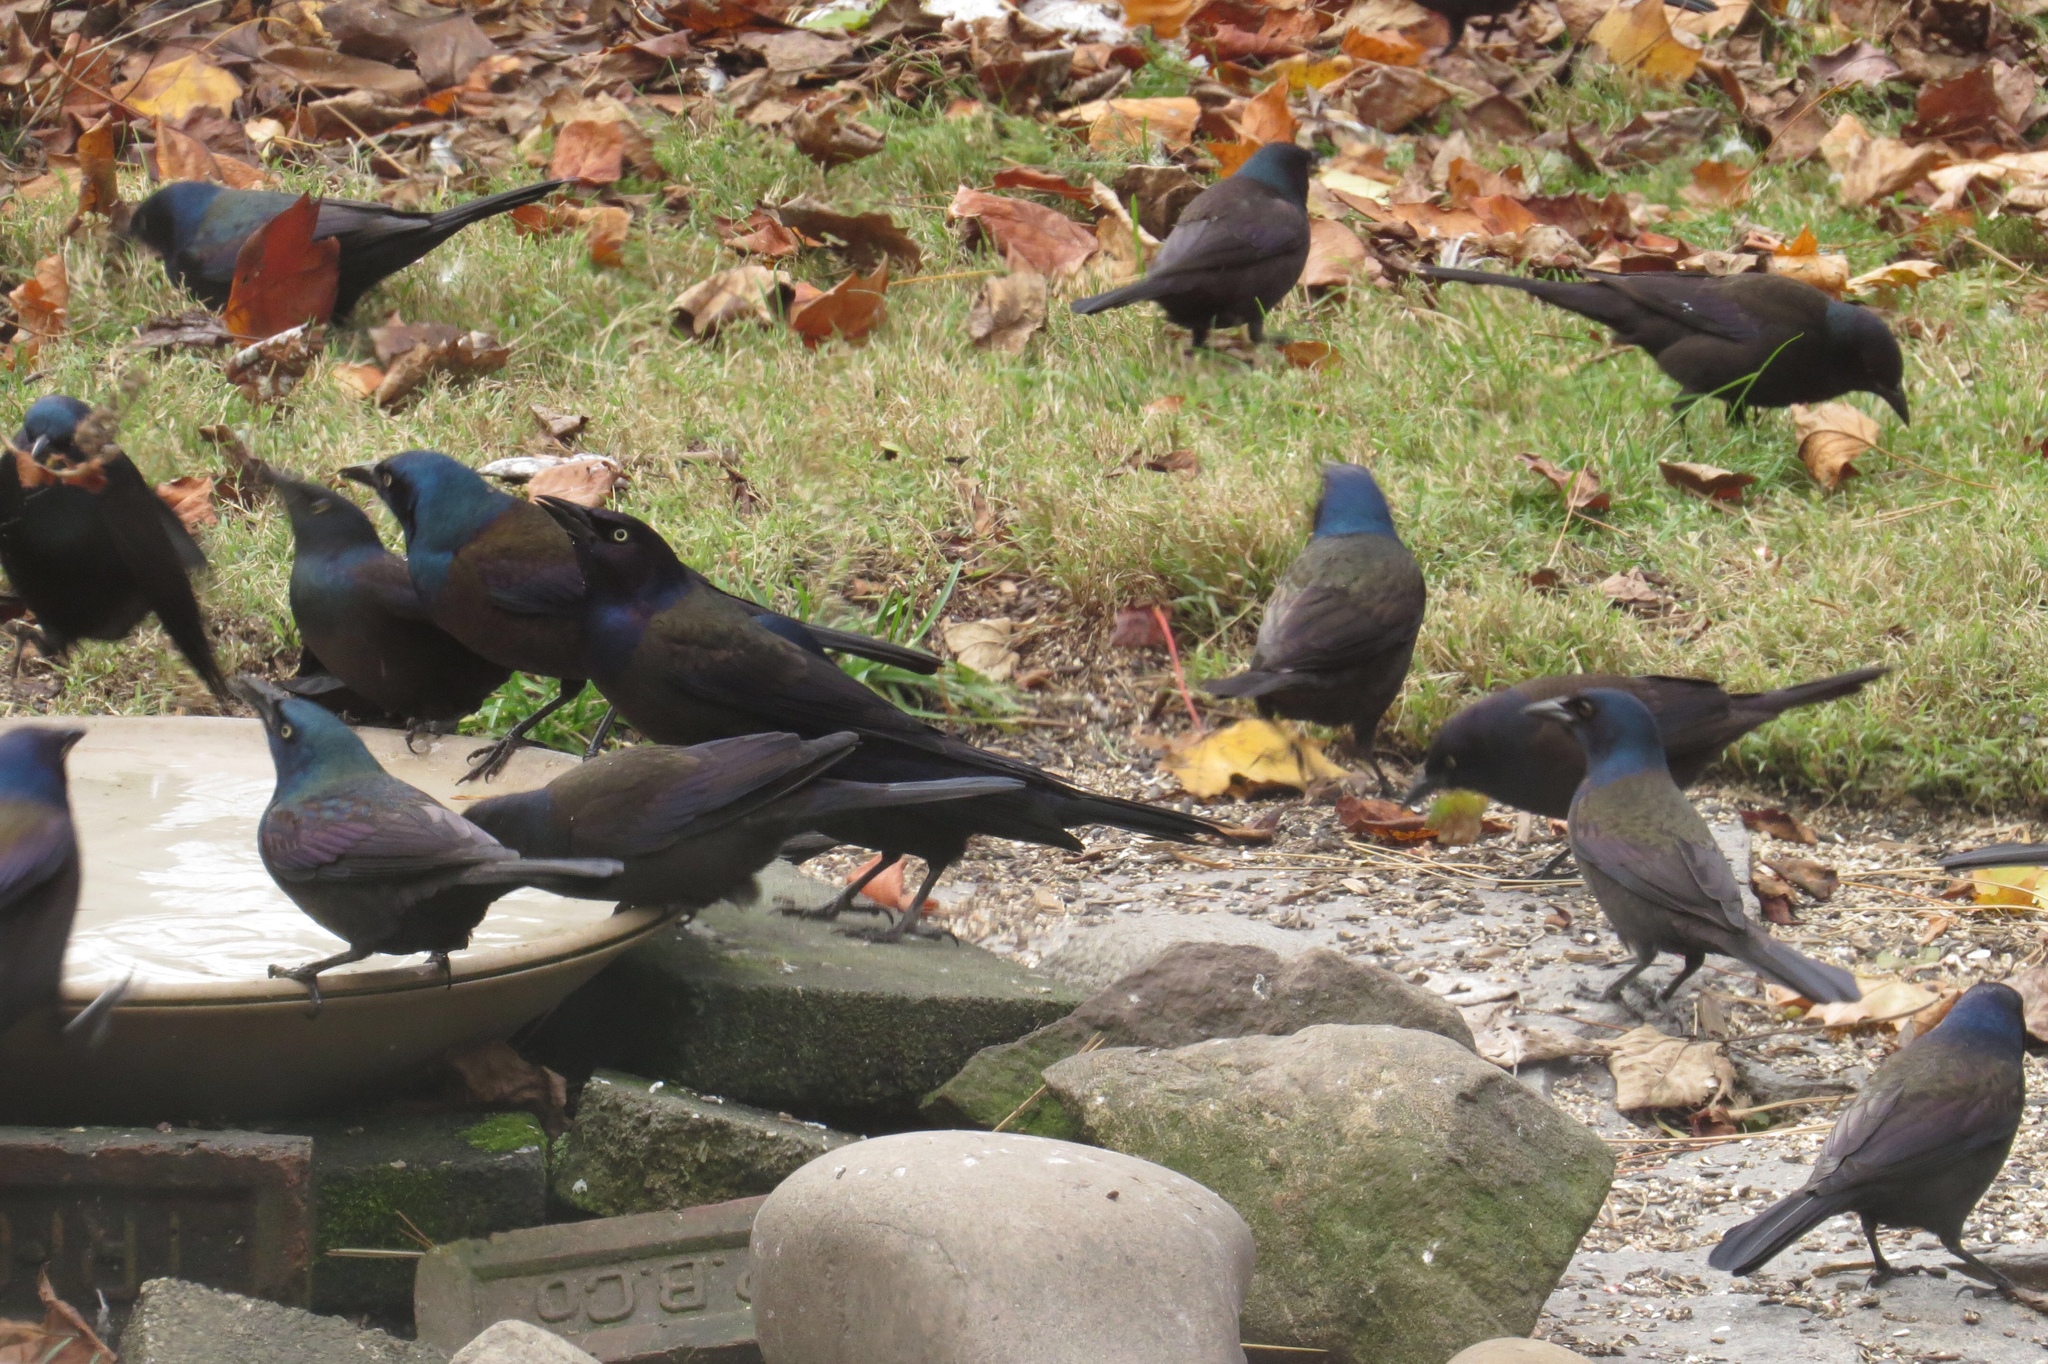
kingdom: Animalia
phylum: Chordata
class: Aves
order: Passeriformes
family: Icteridae
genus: Quiscalus
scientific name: Quiscalus quiscula
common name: Common grackle
